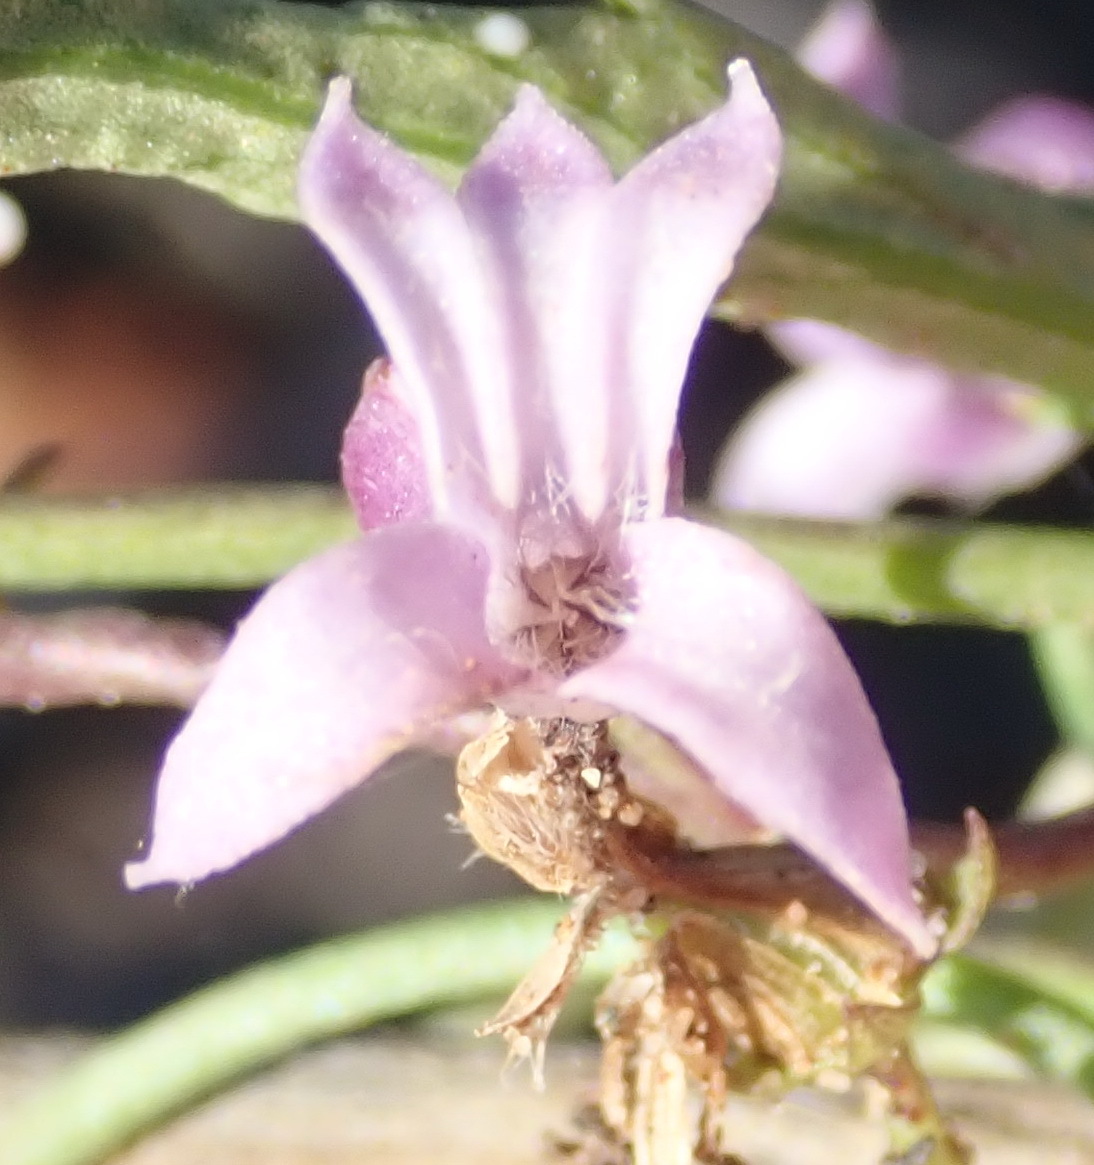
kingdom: Plantae
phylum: Tracheophyta
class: Magnoliopsida
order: Asterales
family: Campanulaceae
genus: Cyphia
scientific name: Cyphia digitata
